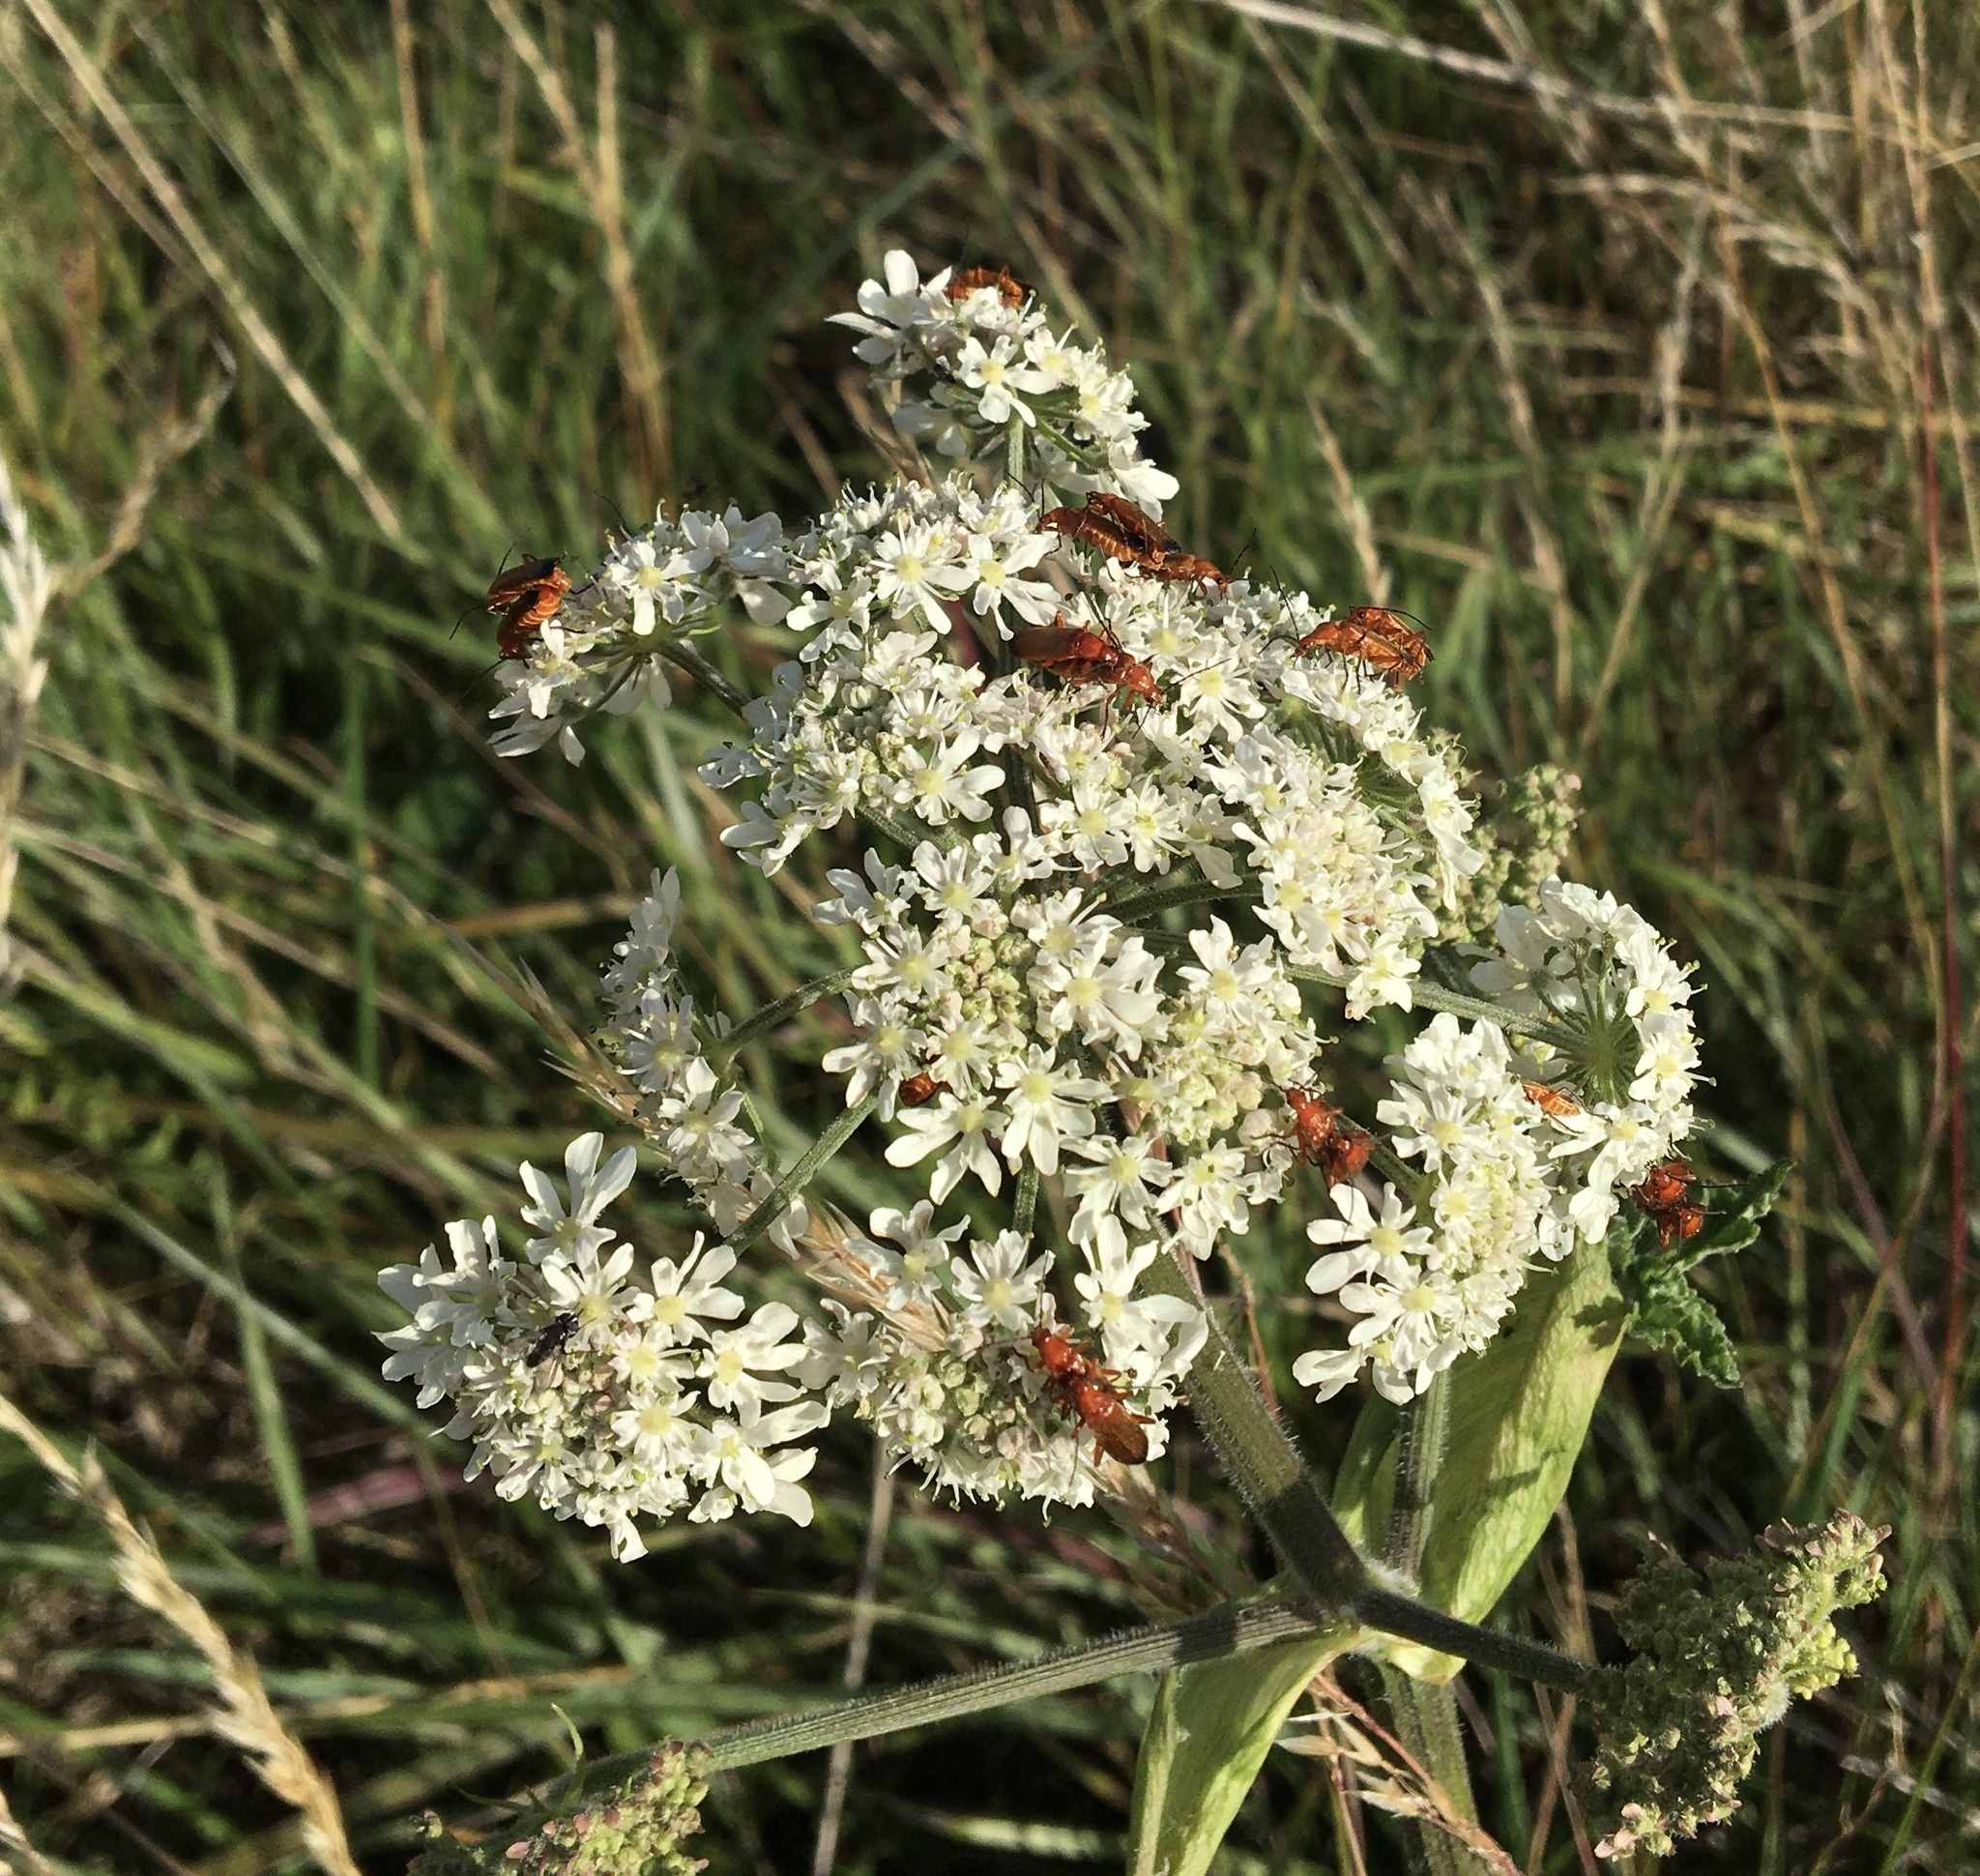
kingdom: Animalia
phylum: Arthropoda
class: Insecta
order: Coleoptera
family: Cantharidae
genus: Rhagonycha
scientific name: Rhagonycha fulva
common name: Common red soldier beetle
